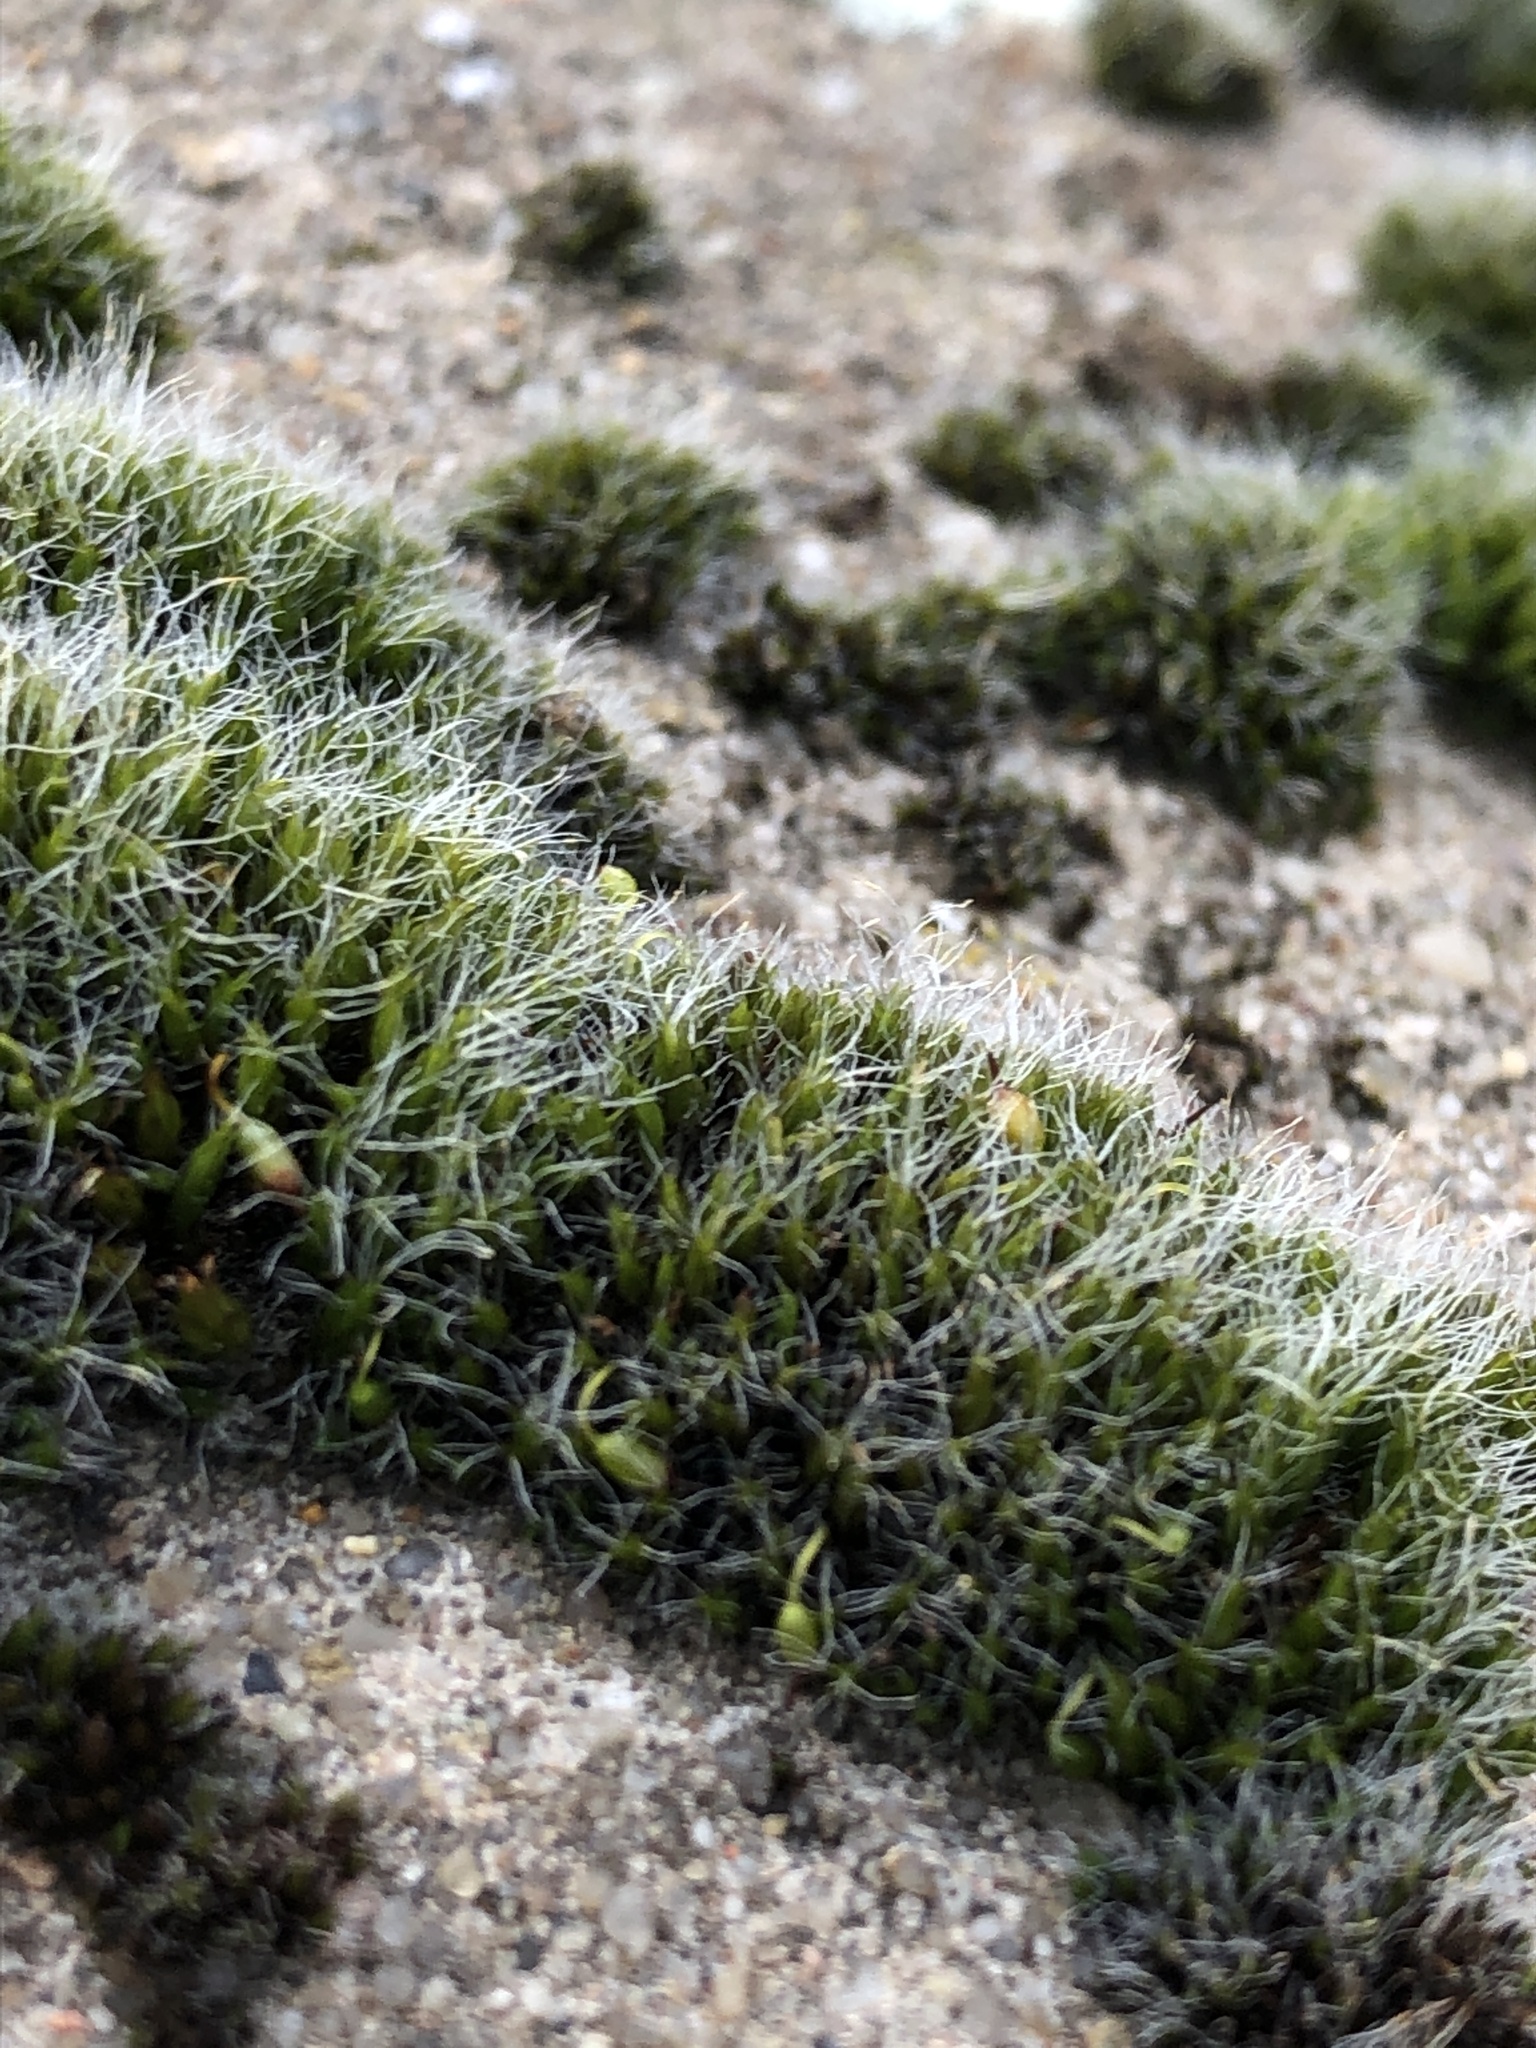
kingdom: Plantae
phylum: Bryophyta
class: Bryopsida
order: Grimmiales
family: Grimmiaceae
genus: Grimmia
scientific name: Grimmia pulvinata
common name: Grey-cushioned grimmia
